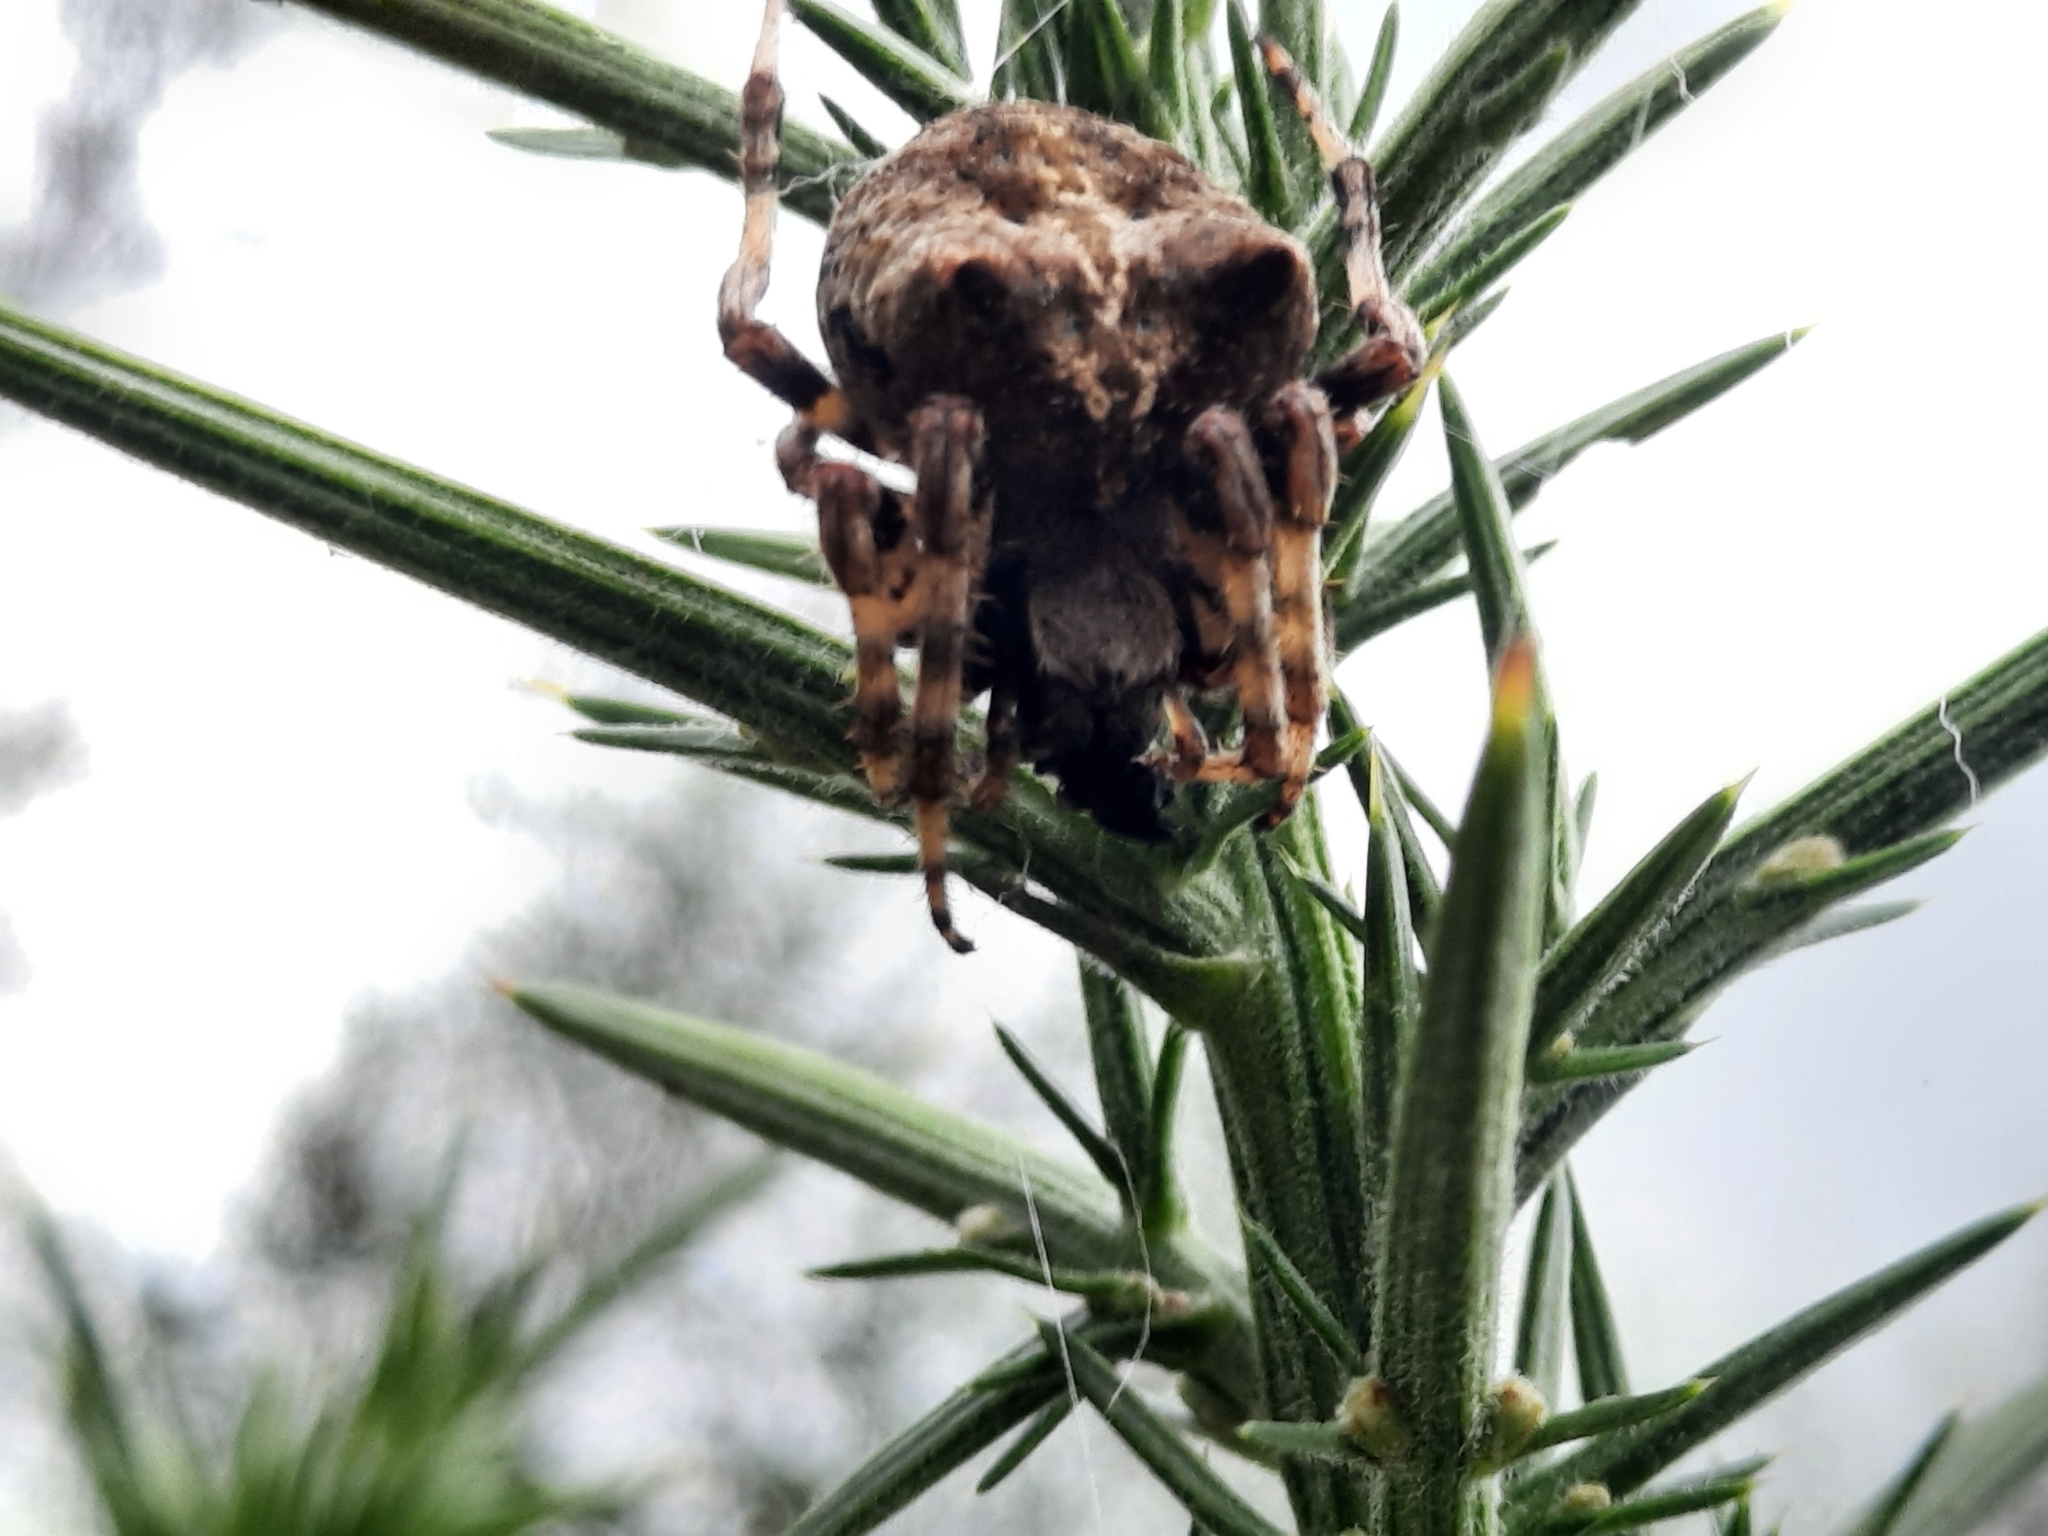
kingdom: Animalia
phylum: Arthropoda
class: Arachnida
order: Araneae
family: Araneidae
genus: Araneus
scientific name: Araneus angulatus
